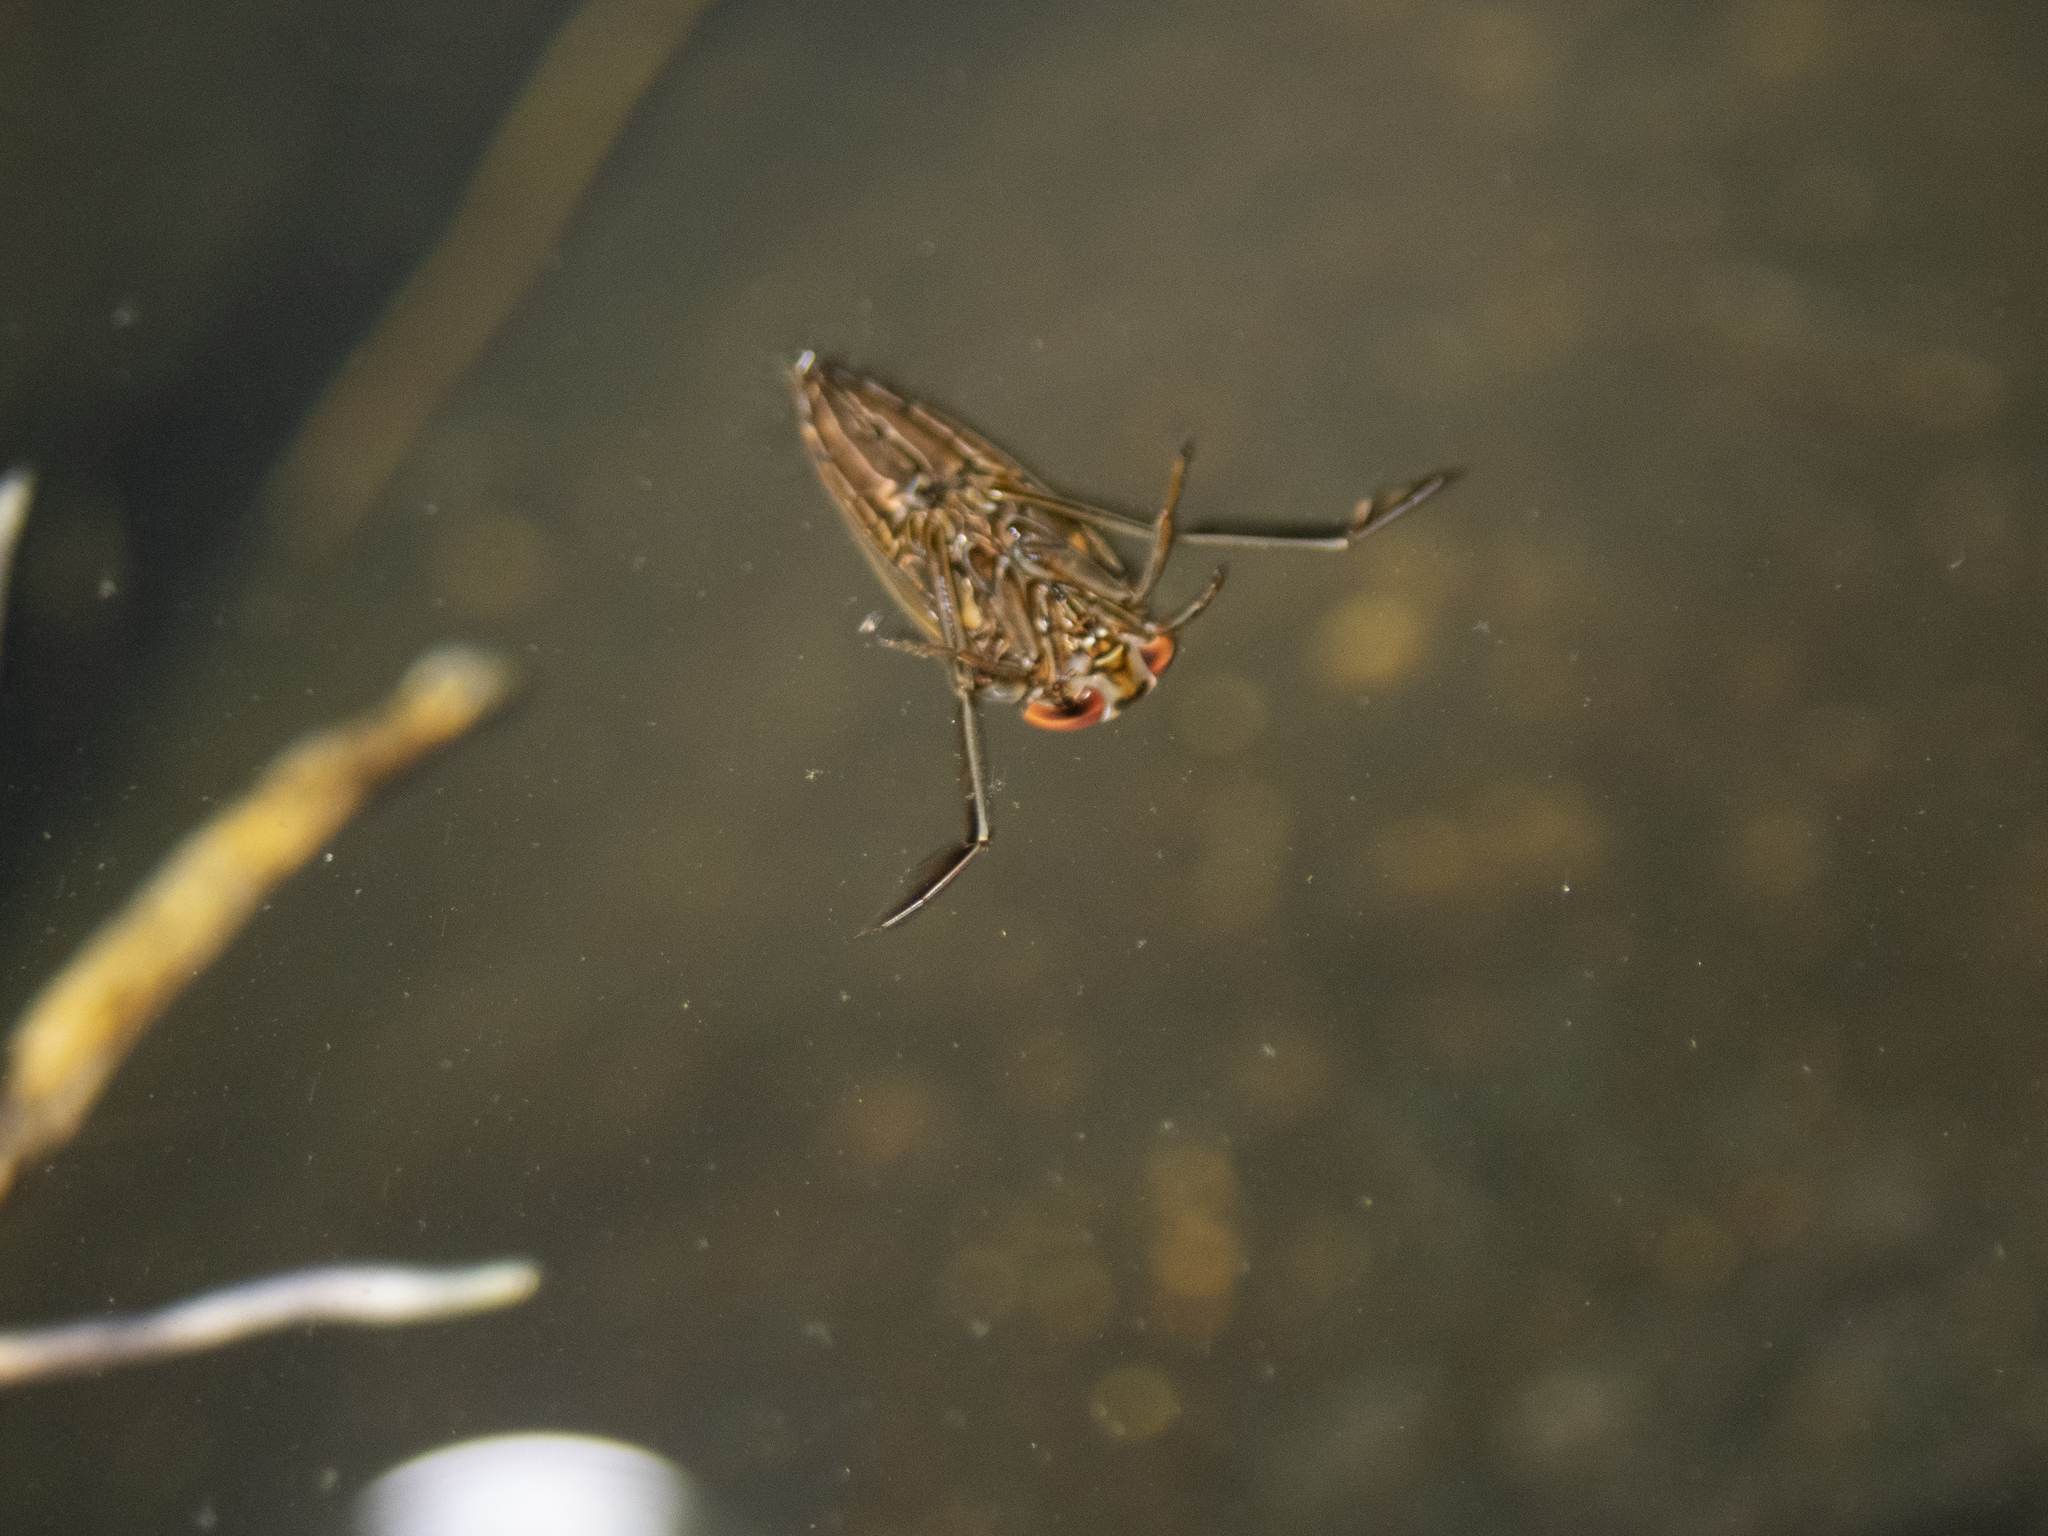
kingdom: Animalia
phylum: Arthropoda
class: Insecta
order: Hemiptera
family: Notonectidae
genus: Enithares
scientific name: Enithares
